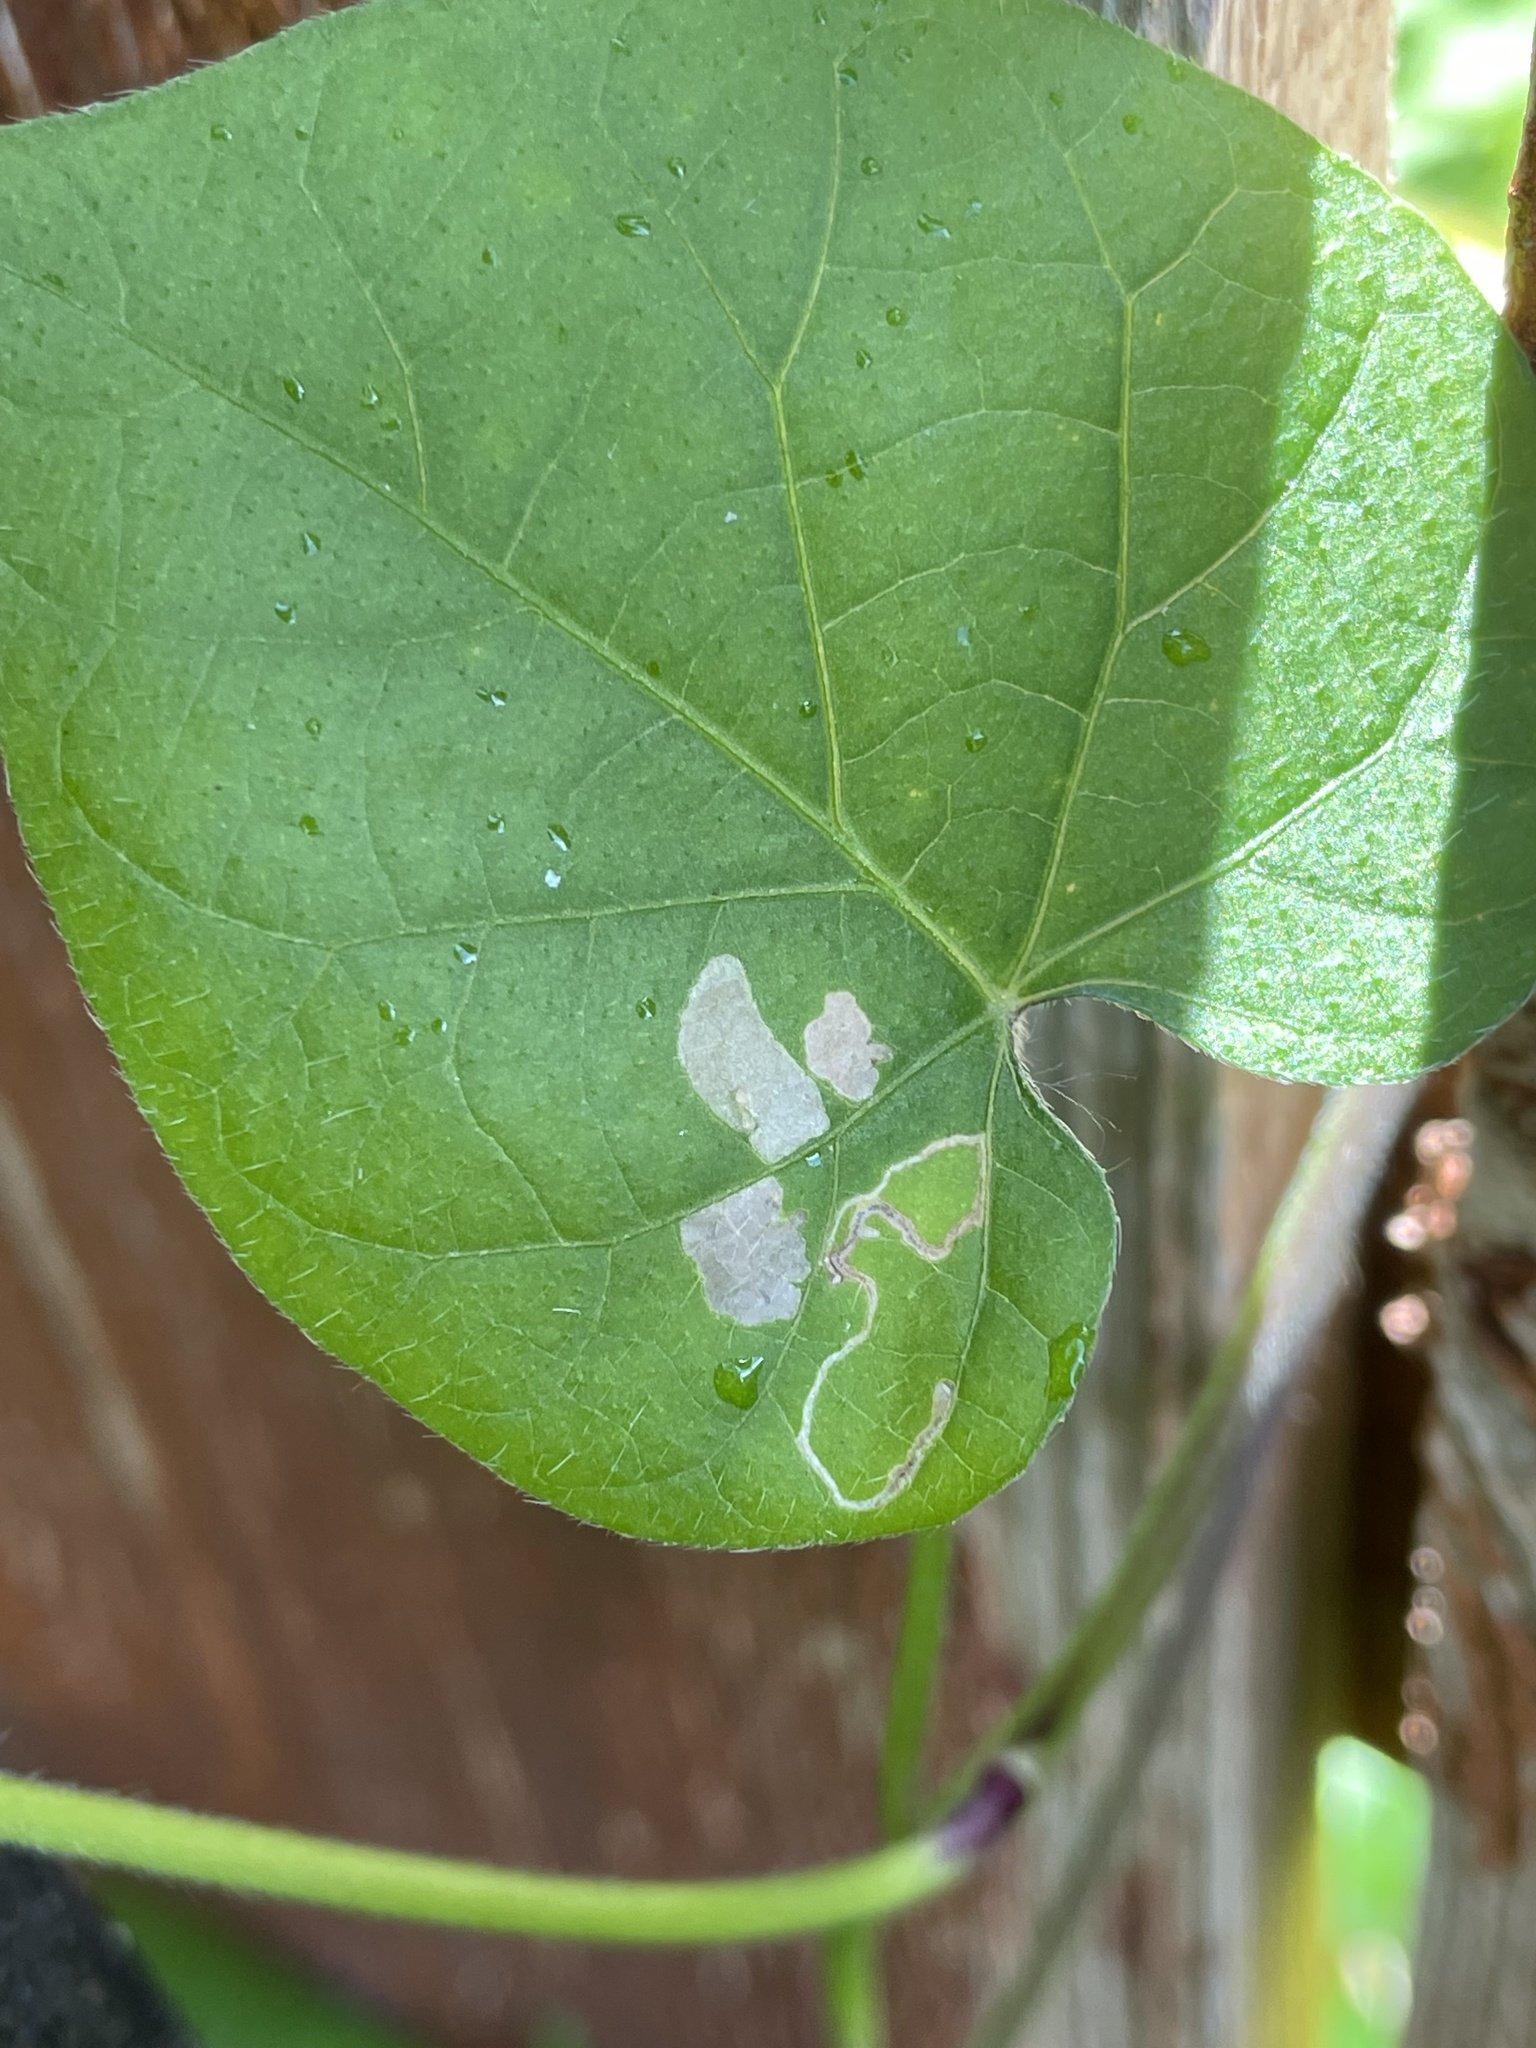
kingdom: Animalia
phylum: Arthropoda
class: Insecta
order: Lepidoptera
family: Bedelliidae
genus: Bedellia
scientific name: Bedellia somnulentella
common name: Morning-glory leafminer moth
